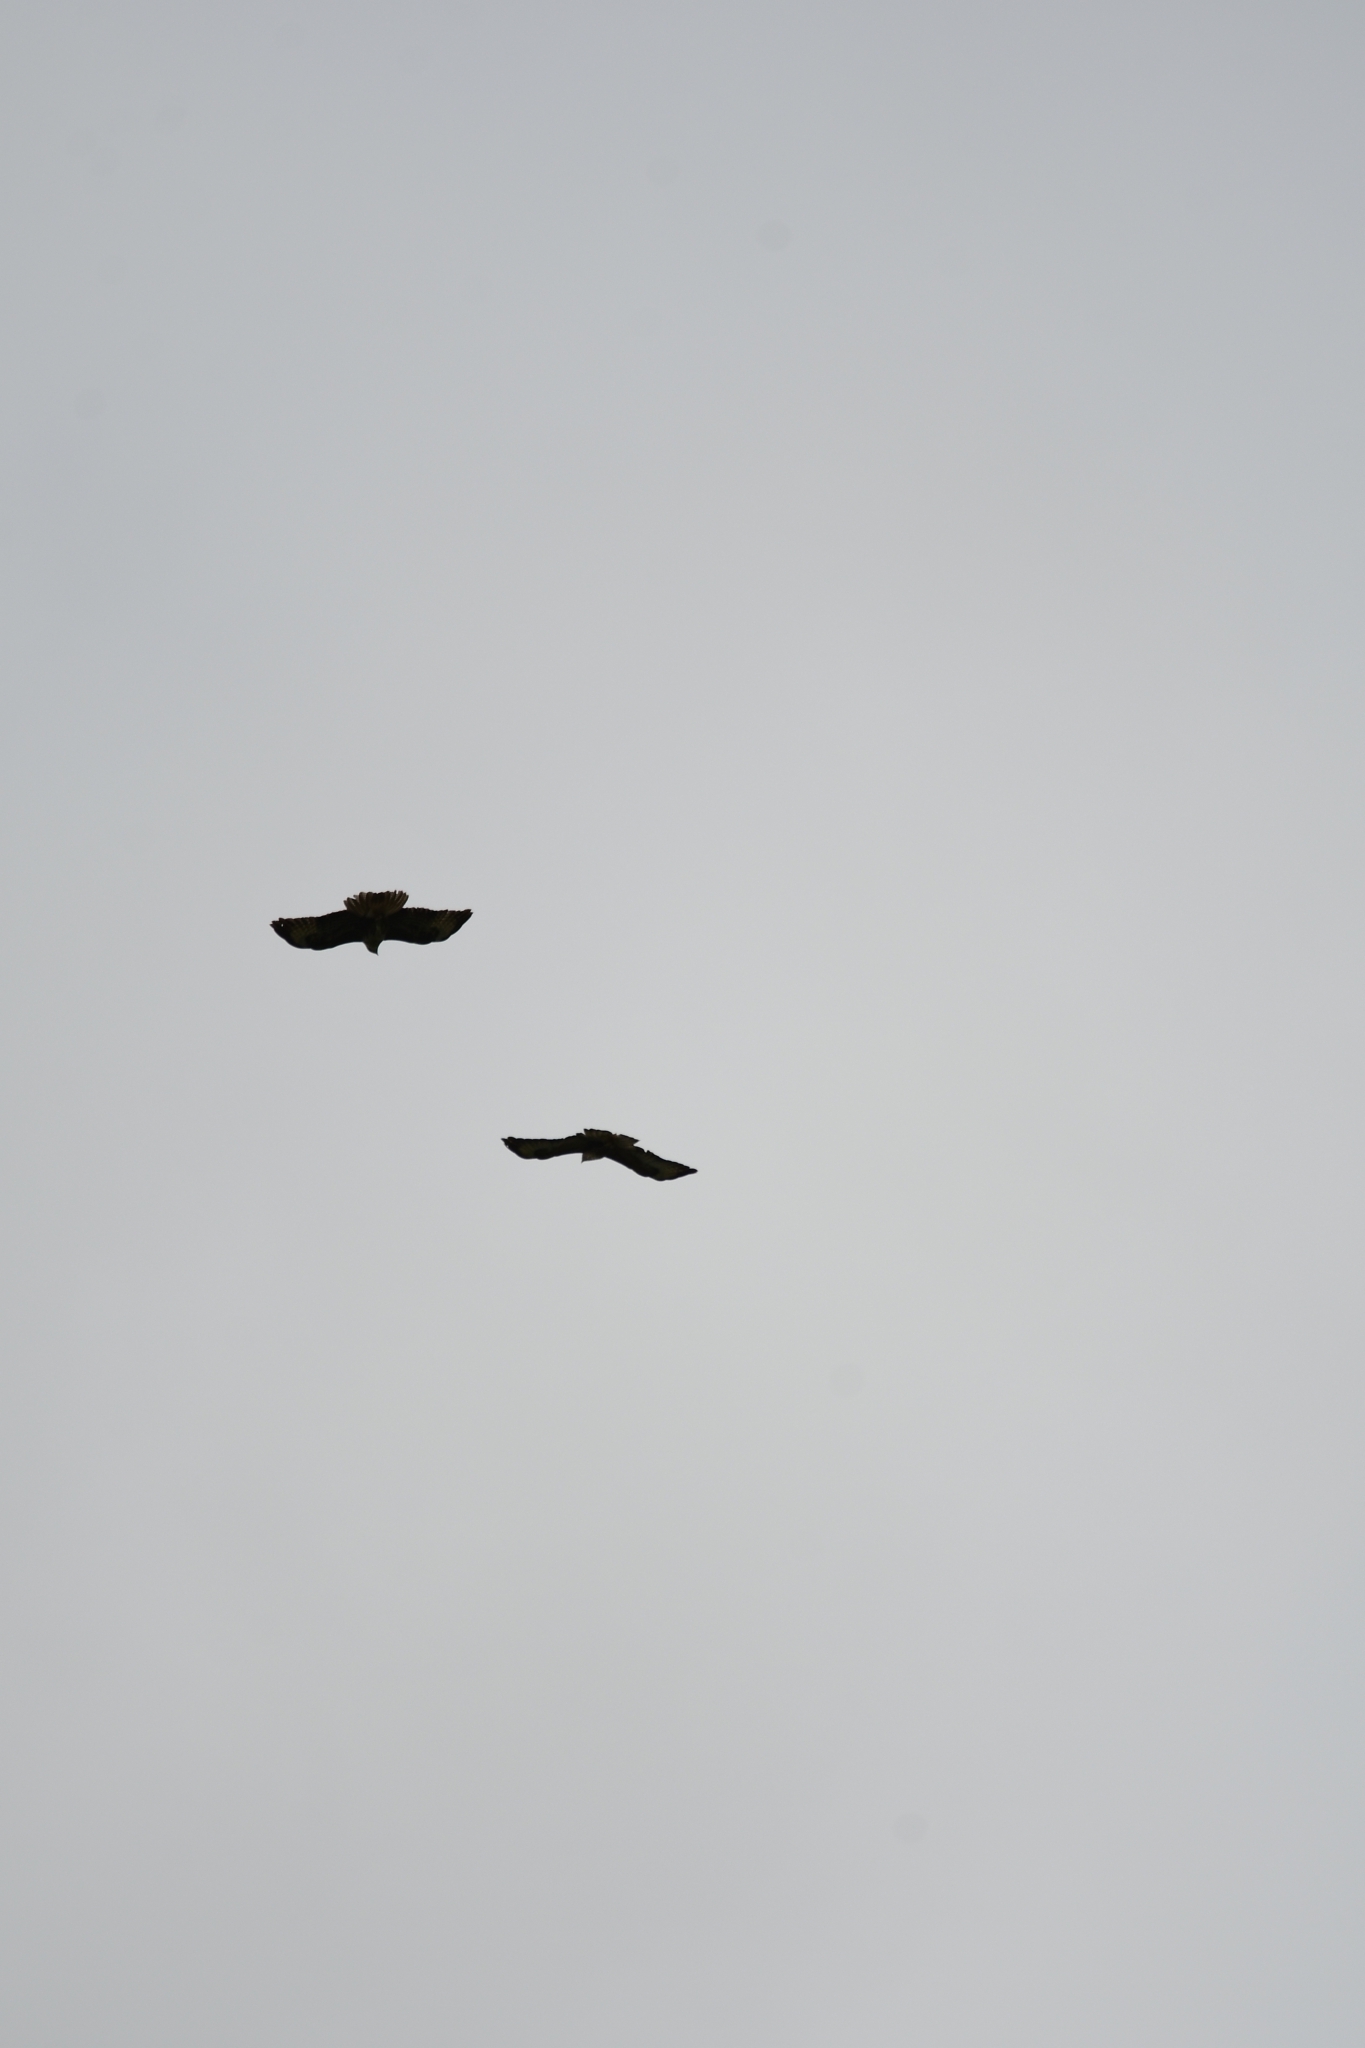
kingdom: Animalia
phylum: Chordata
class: Aves
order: Accipitriformes
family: Accipitridae
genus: Buteo
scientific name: Buteo buteo
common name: Common buzzard
